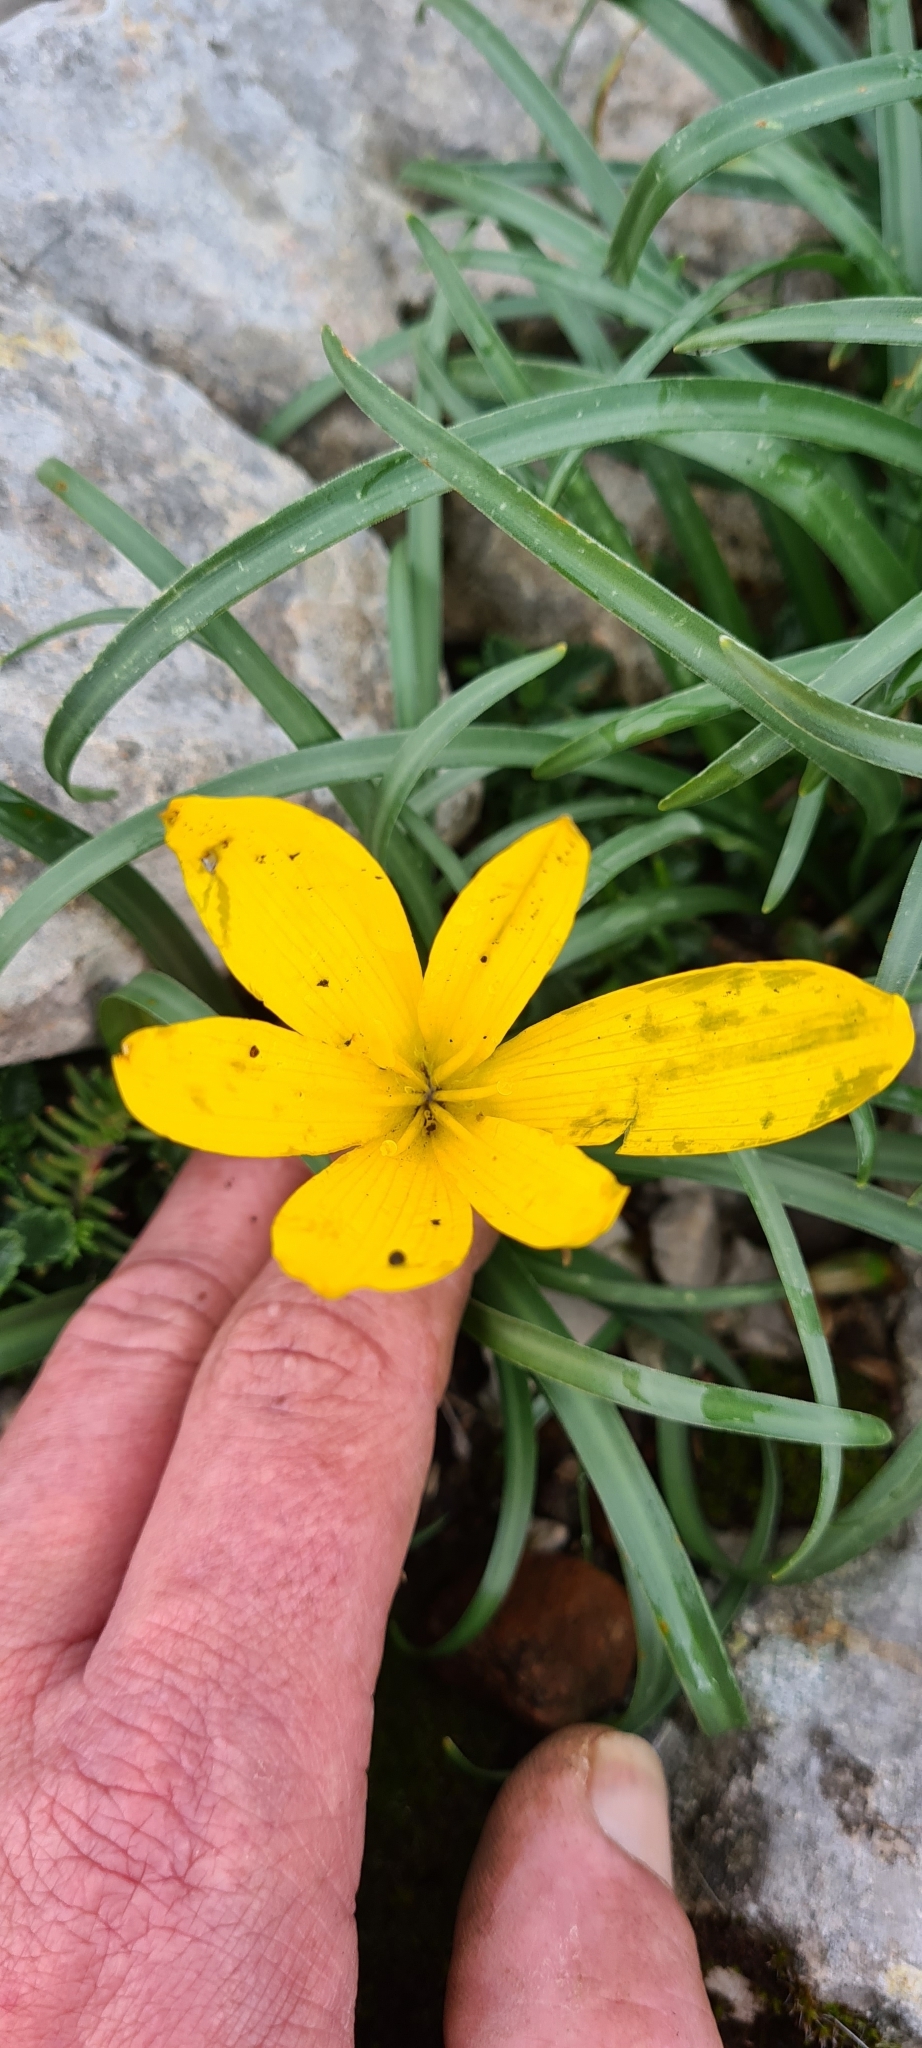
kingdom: Plantae
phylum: Tracheophyta
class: Liliopsida
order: Asparagales
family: Amaryllidaceae
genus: Sternbergia
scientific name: Sternbergia lutea
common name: Winter daffodil
